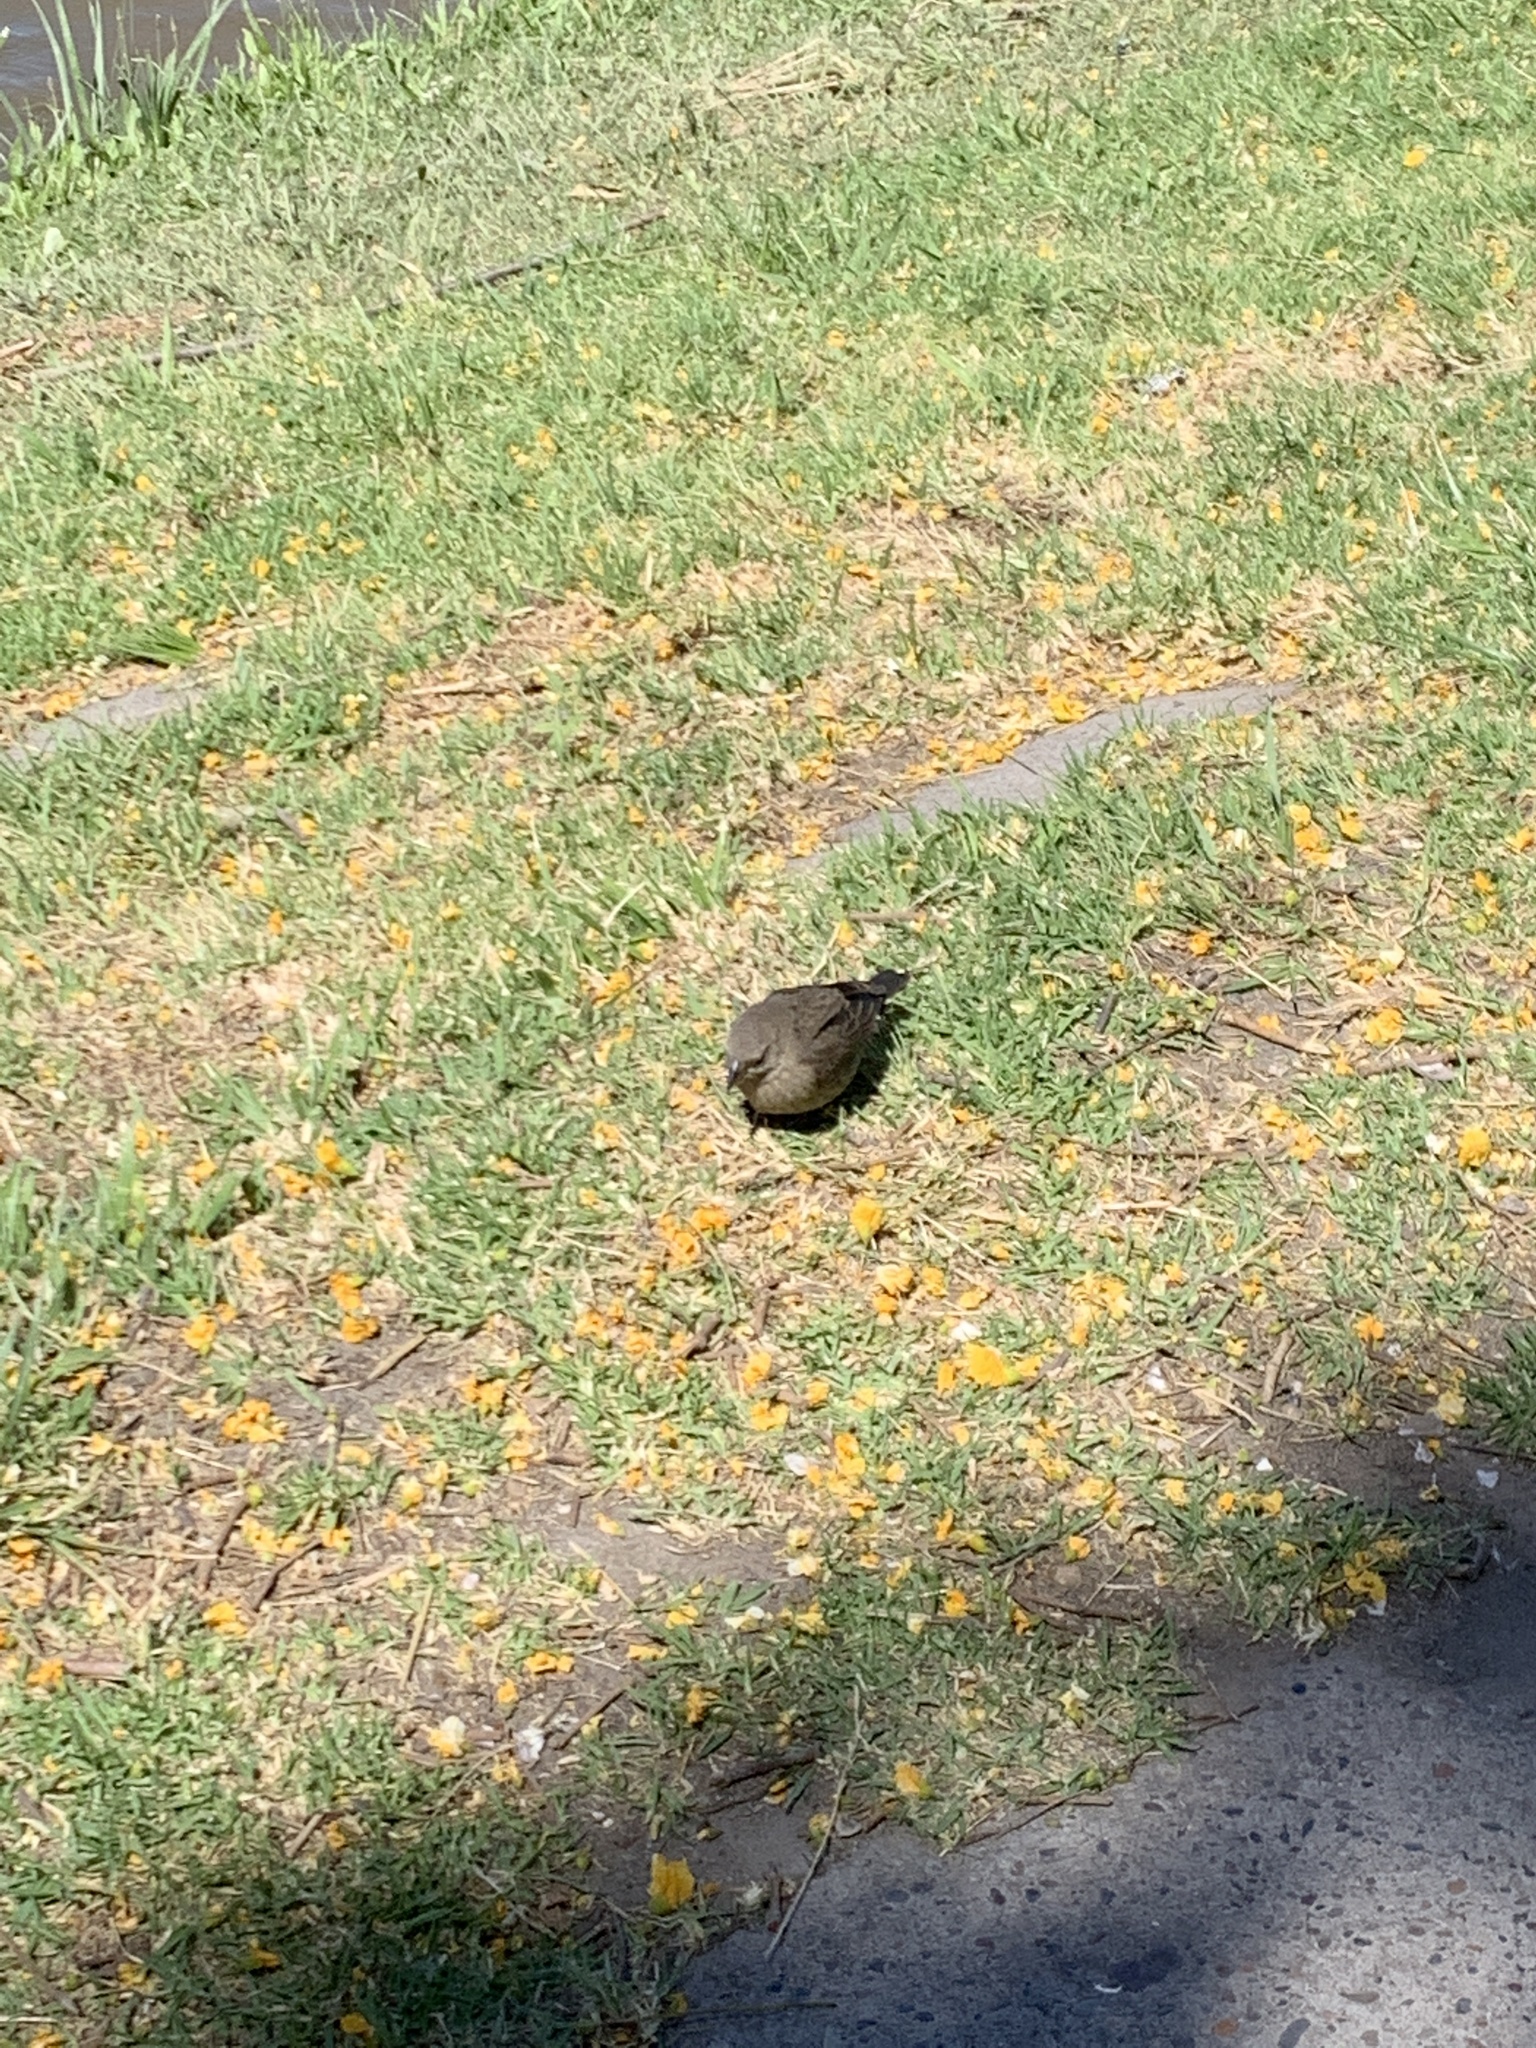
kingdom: Animalia
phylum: Chordata
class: Aves
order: Passeriformes
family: Icteridae
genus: Molothrus
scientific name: Molothrus bonariensis
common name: Shiny cowbird
